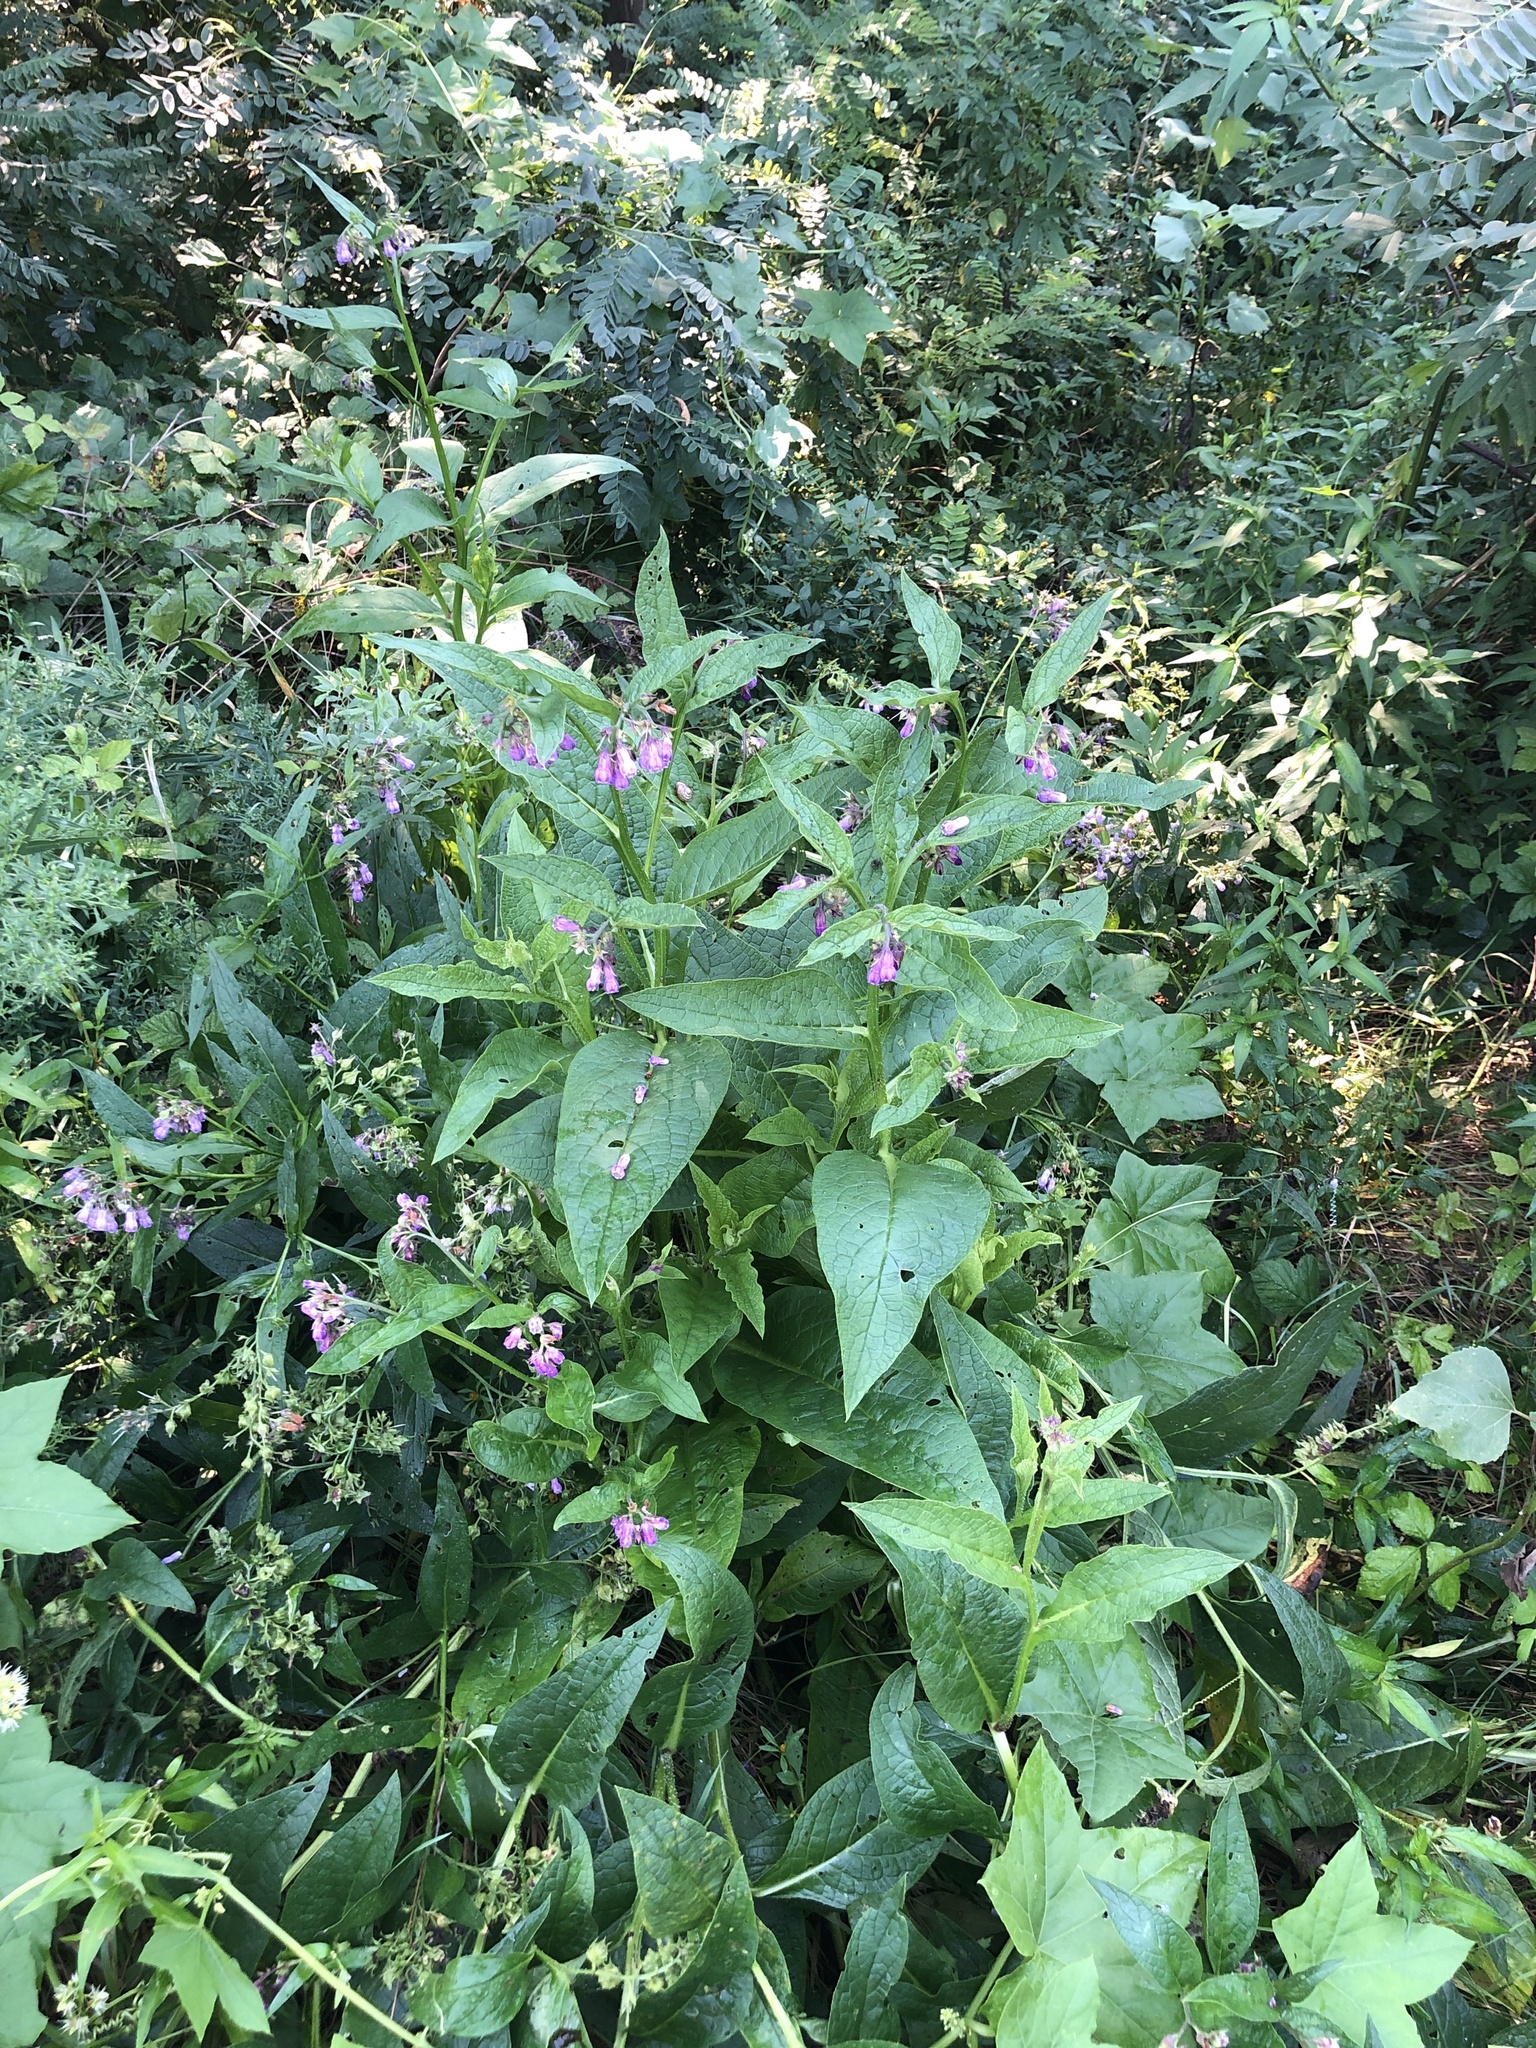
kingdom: Plantae
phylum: Tracheophyta
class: Magnoliopsida
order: Boraginales
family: Boraginaceae
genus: Symphytum
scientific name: Symphytum officinale
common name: Common comfrey
